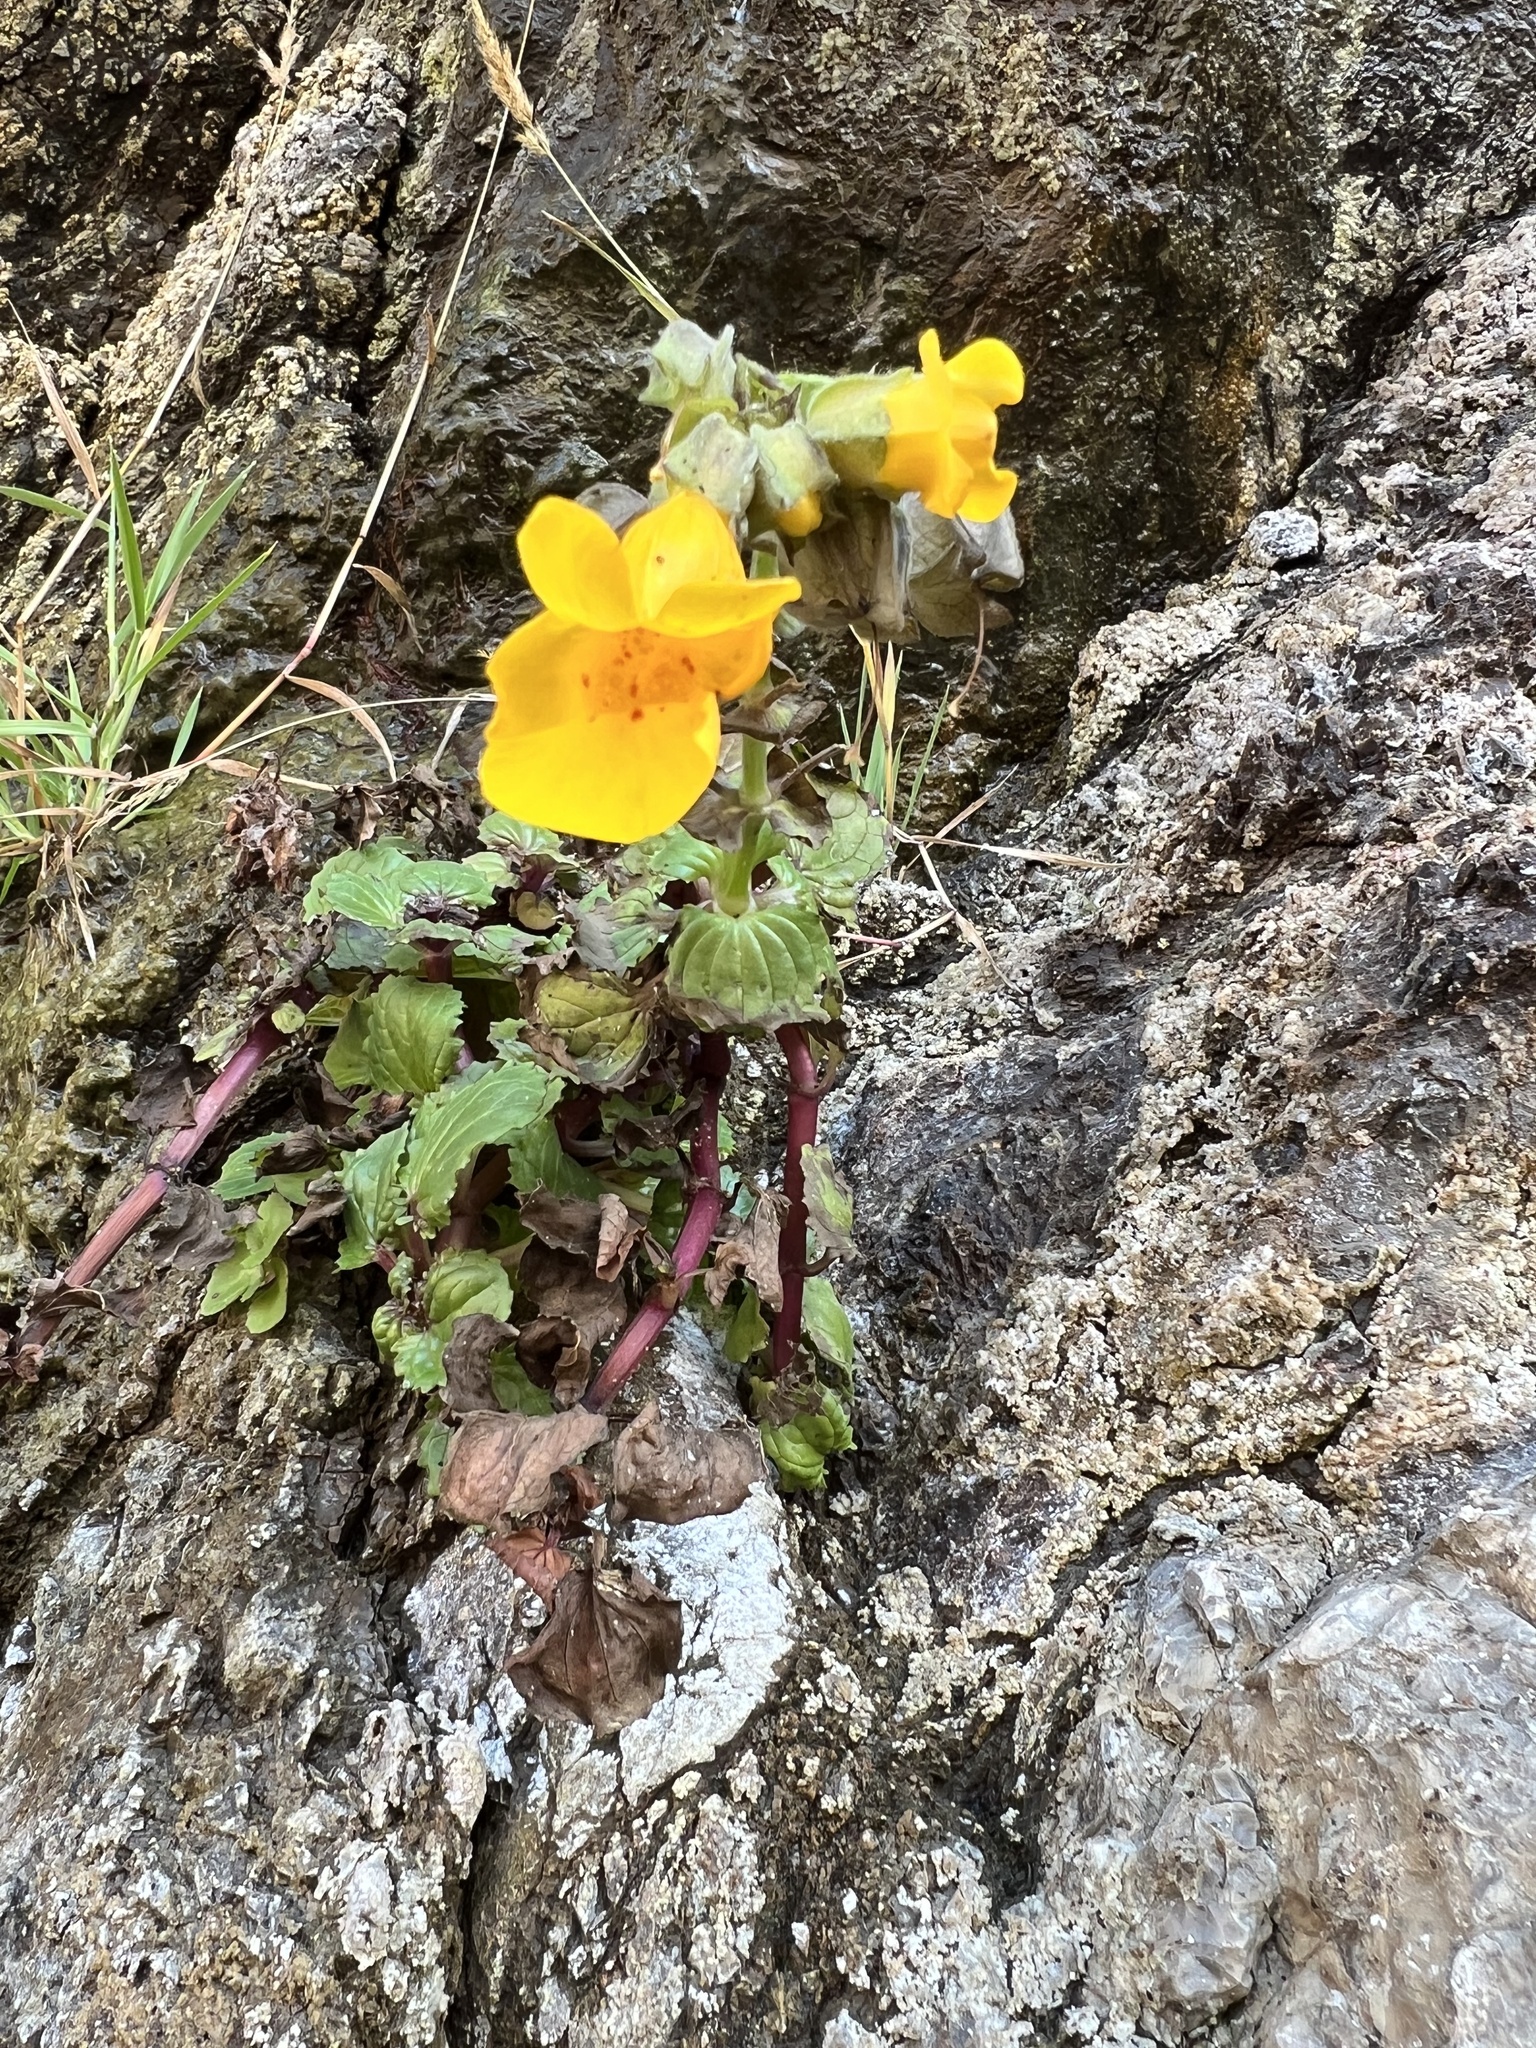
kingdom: Plantae
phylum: Tracheophyta
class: Magnoliopsida
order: Lamiales
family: Phrymaceae
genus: Erythranthe
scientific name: Erythranthe grandis
